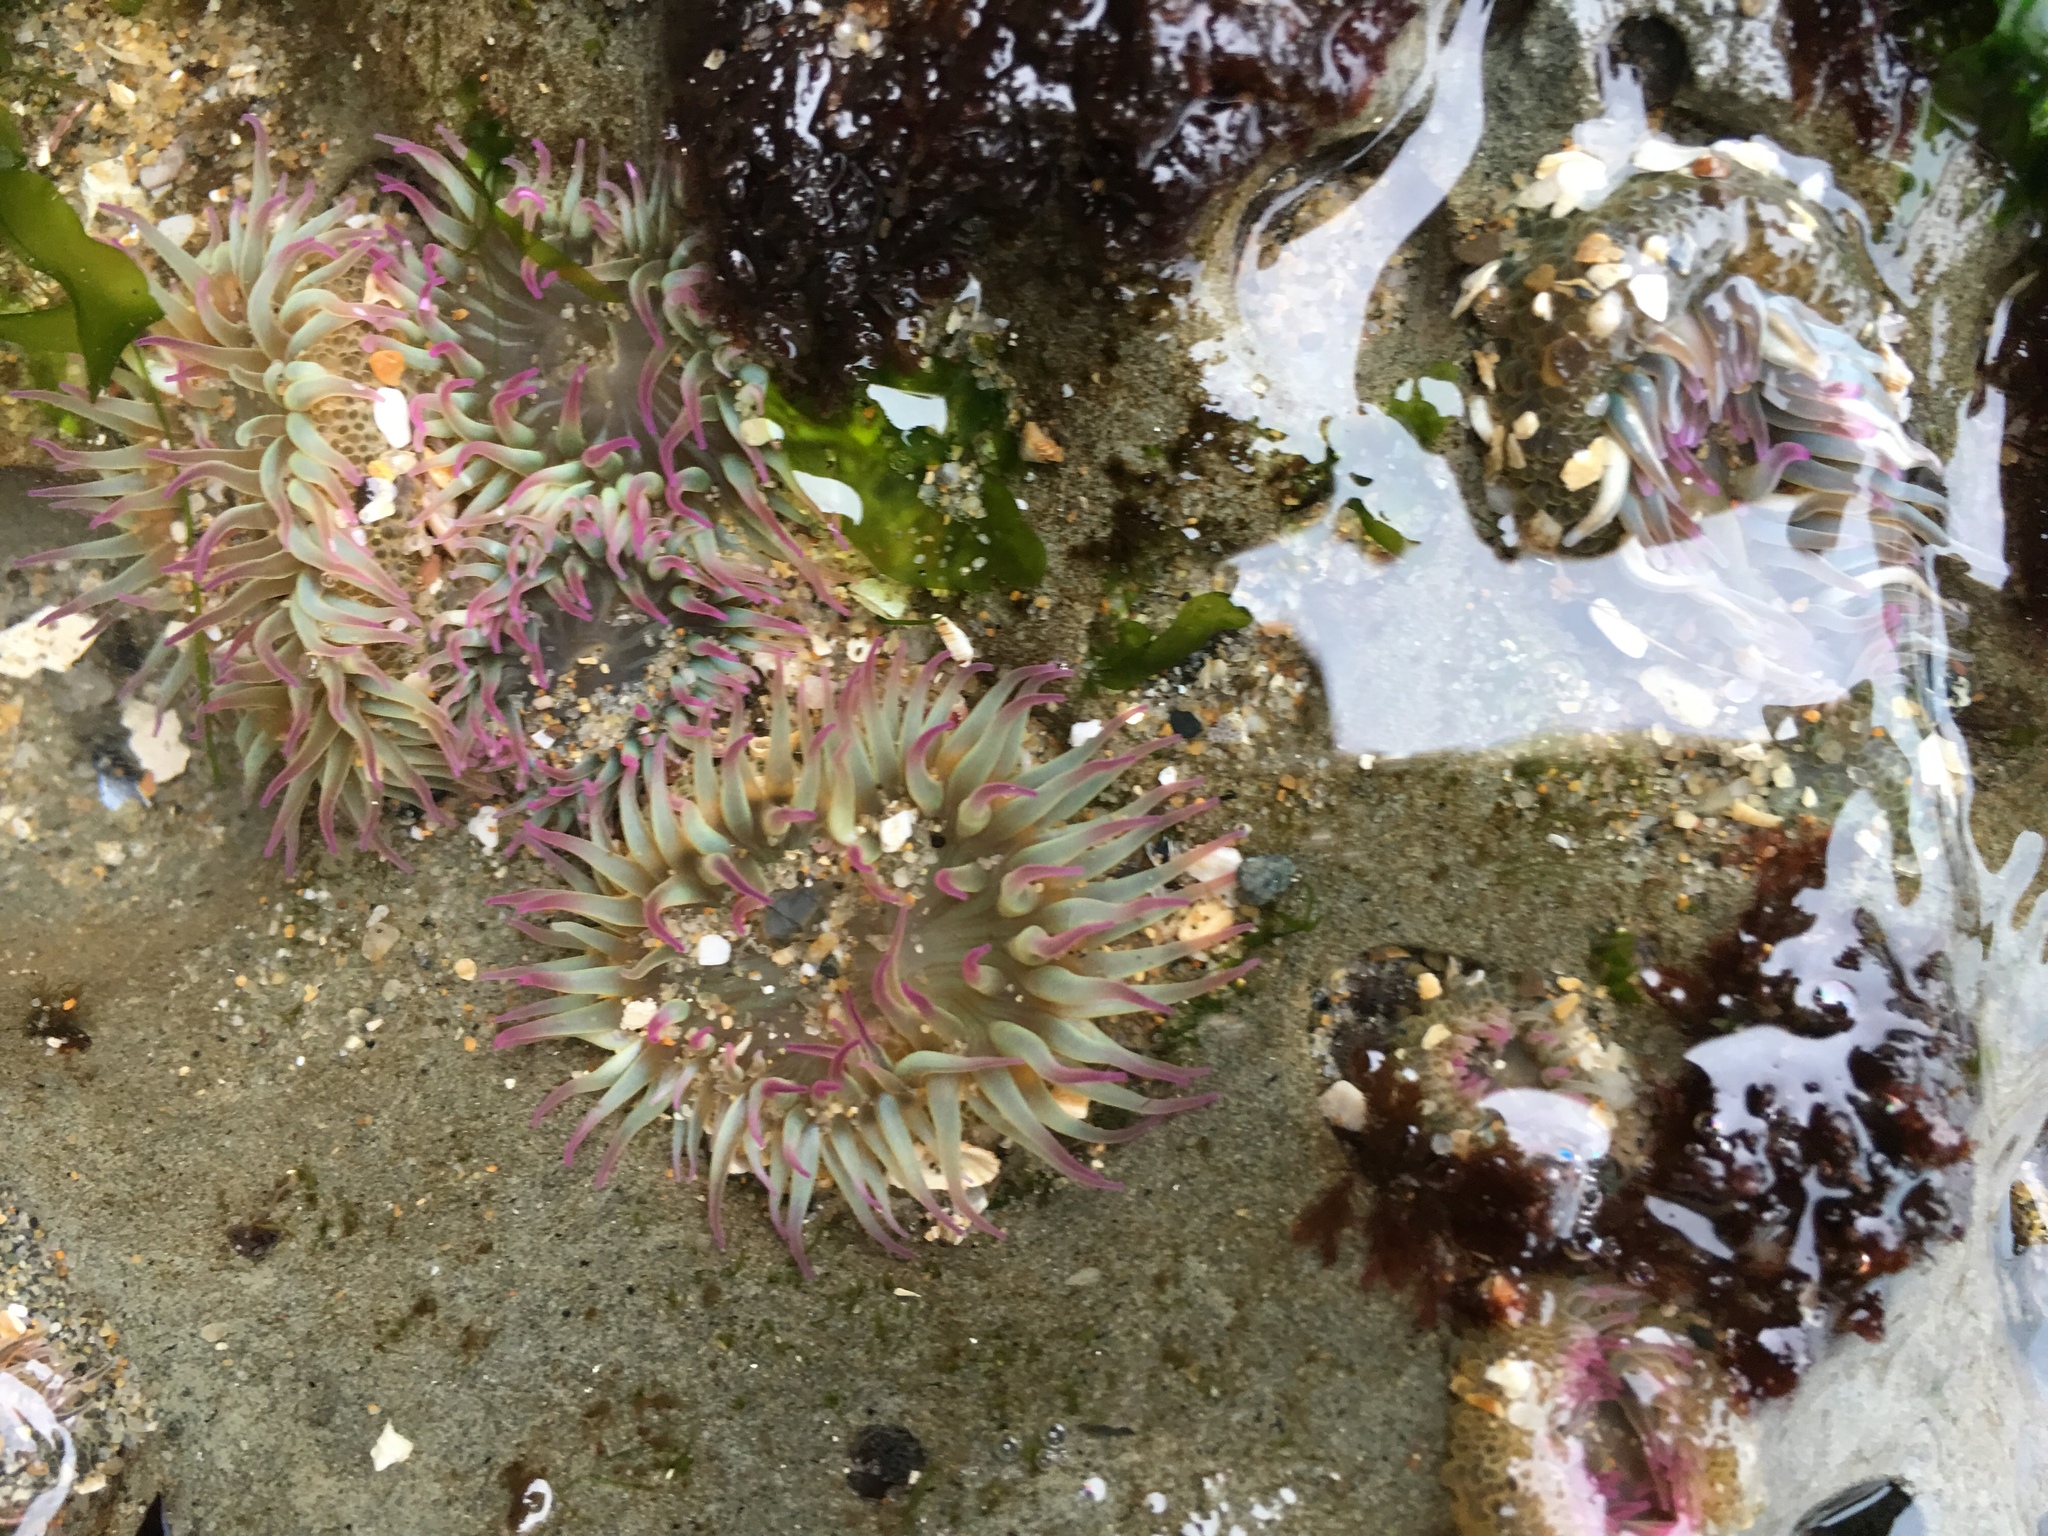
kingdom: Animalia
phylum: Cnidaria
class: Anthozoa
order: Actiniaria
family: Actiniidae
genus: Anthopleura
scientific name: Anthopleura elegantissima
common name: Clonal anemone
